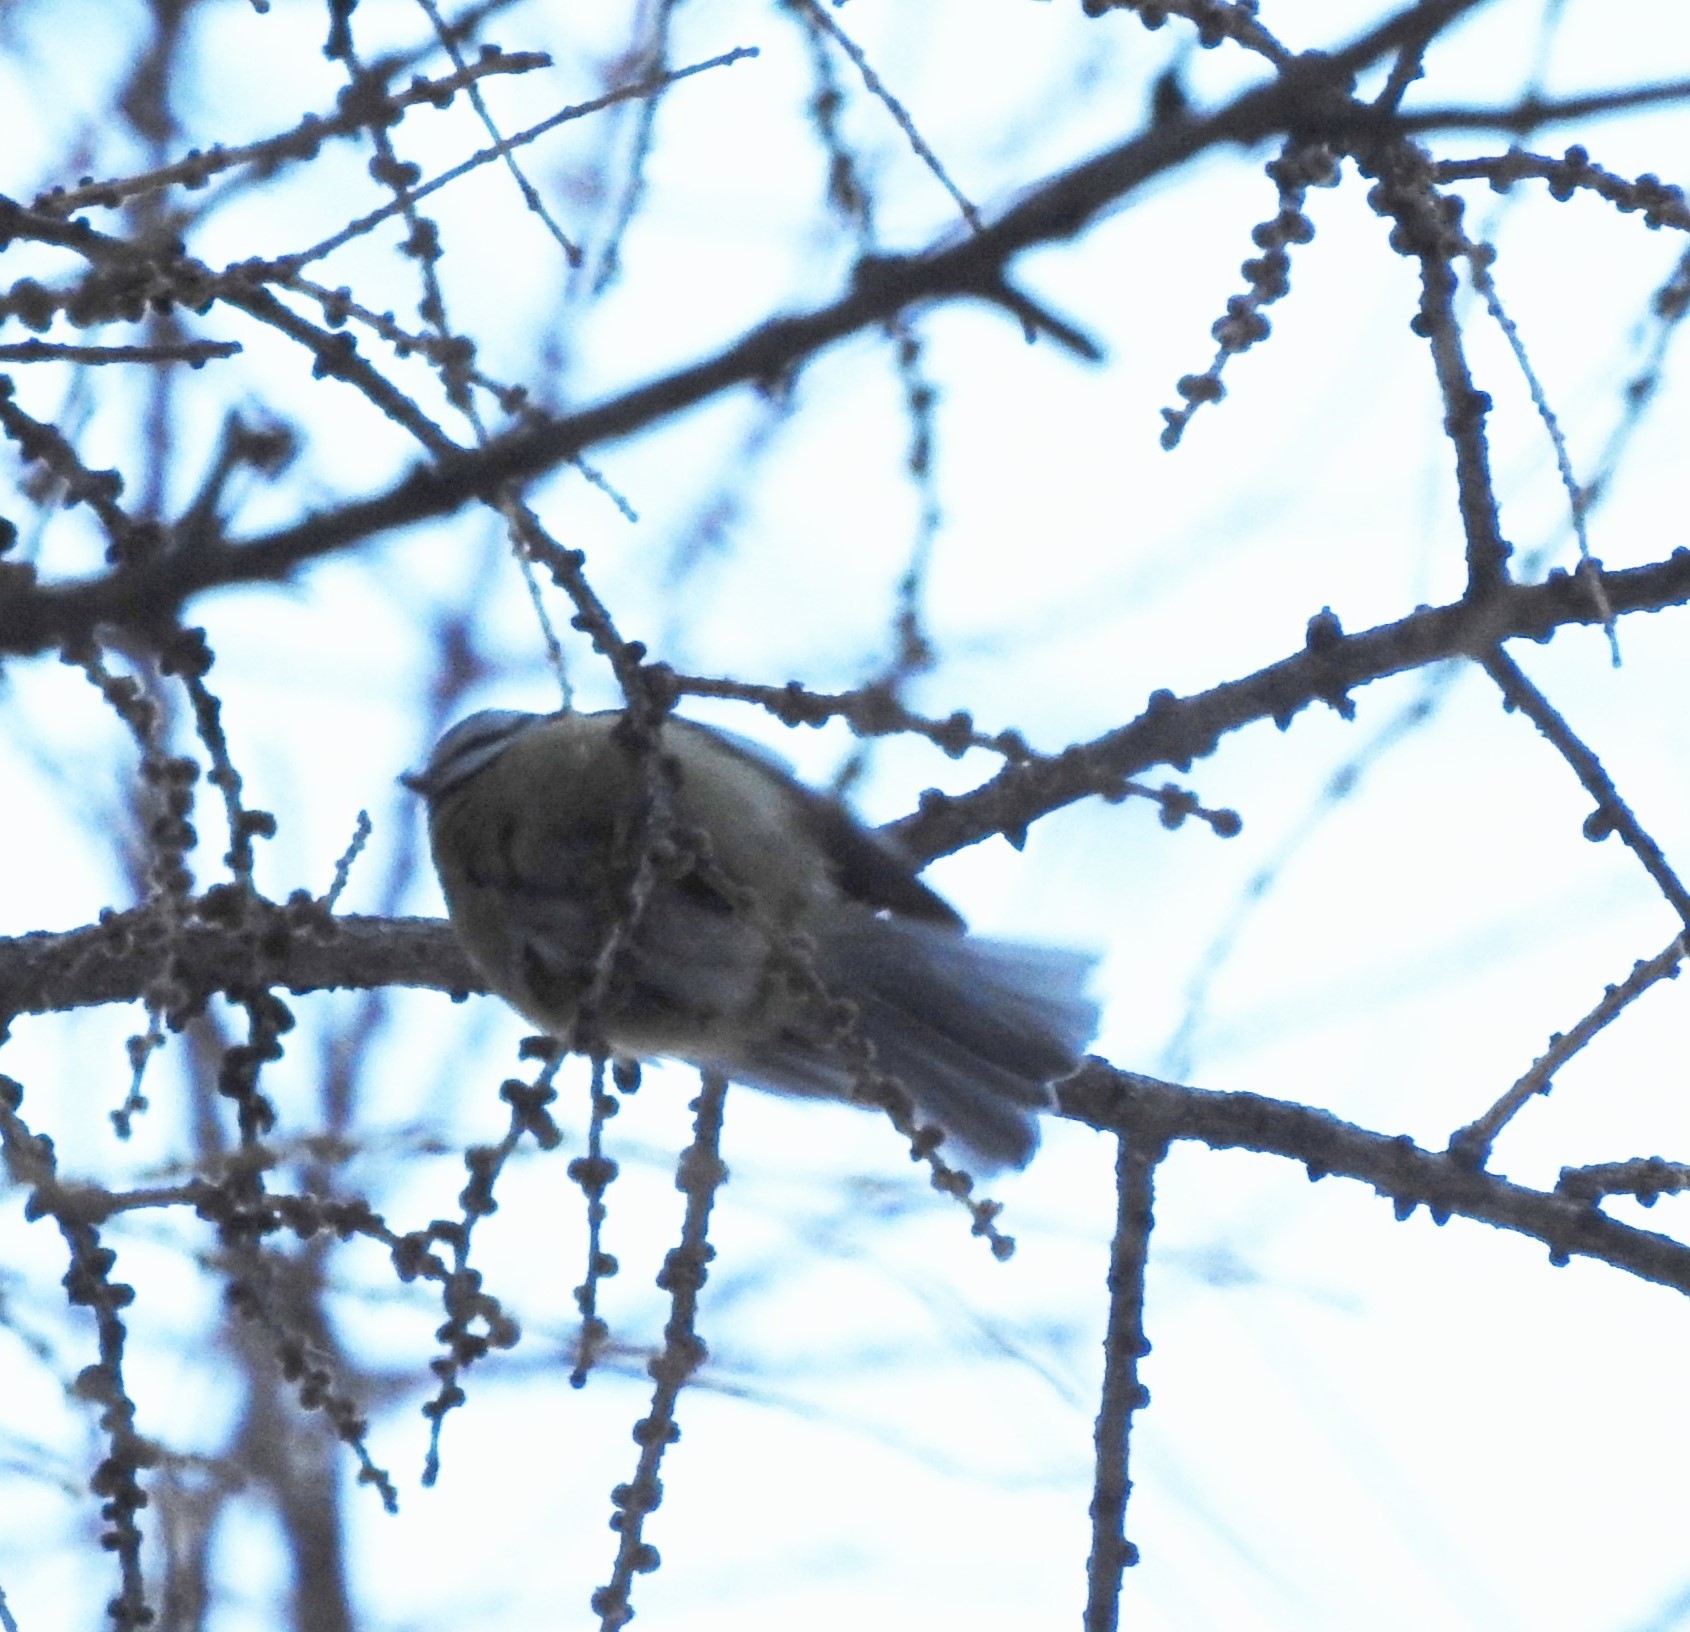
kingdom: Animalia
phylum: Chordata
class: Aves
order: Passeriformes
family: Paridae
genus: Cyanistes
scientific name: Cyanistes caeruleus
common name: Eurasian blue tit
